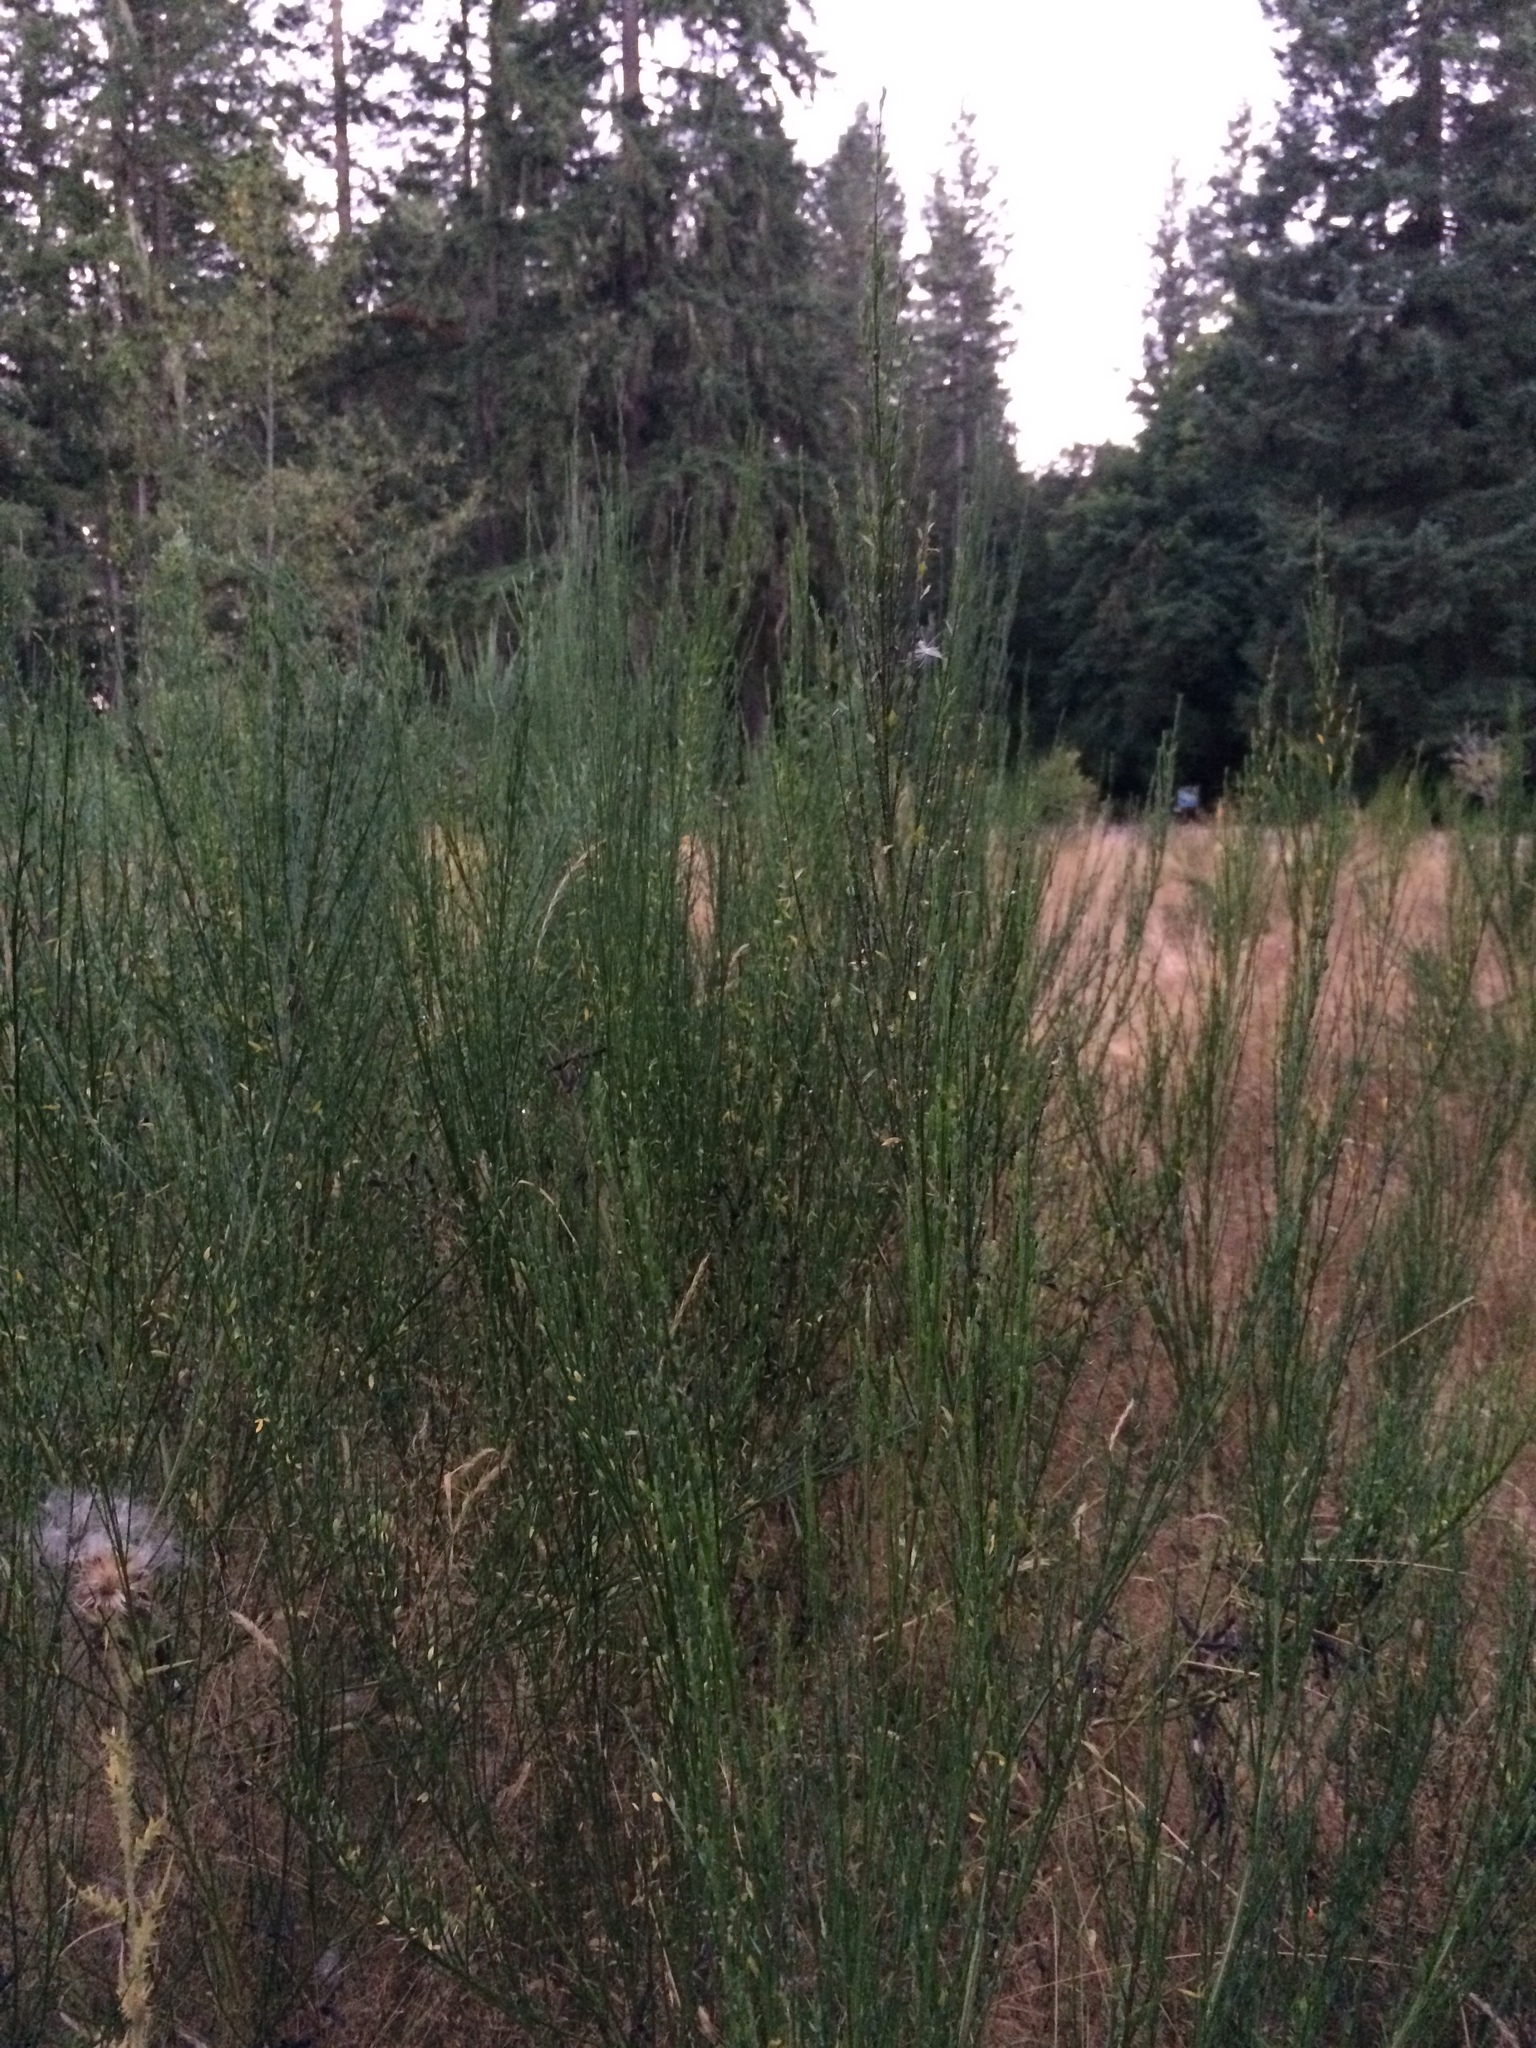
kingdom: Plantae
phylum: Tracheophyta
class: Magnoliopsida
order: Fabales
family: Fabaceae
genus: Cytisus
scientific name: Cytisus scoparius
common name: Scotch broom
